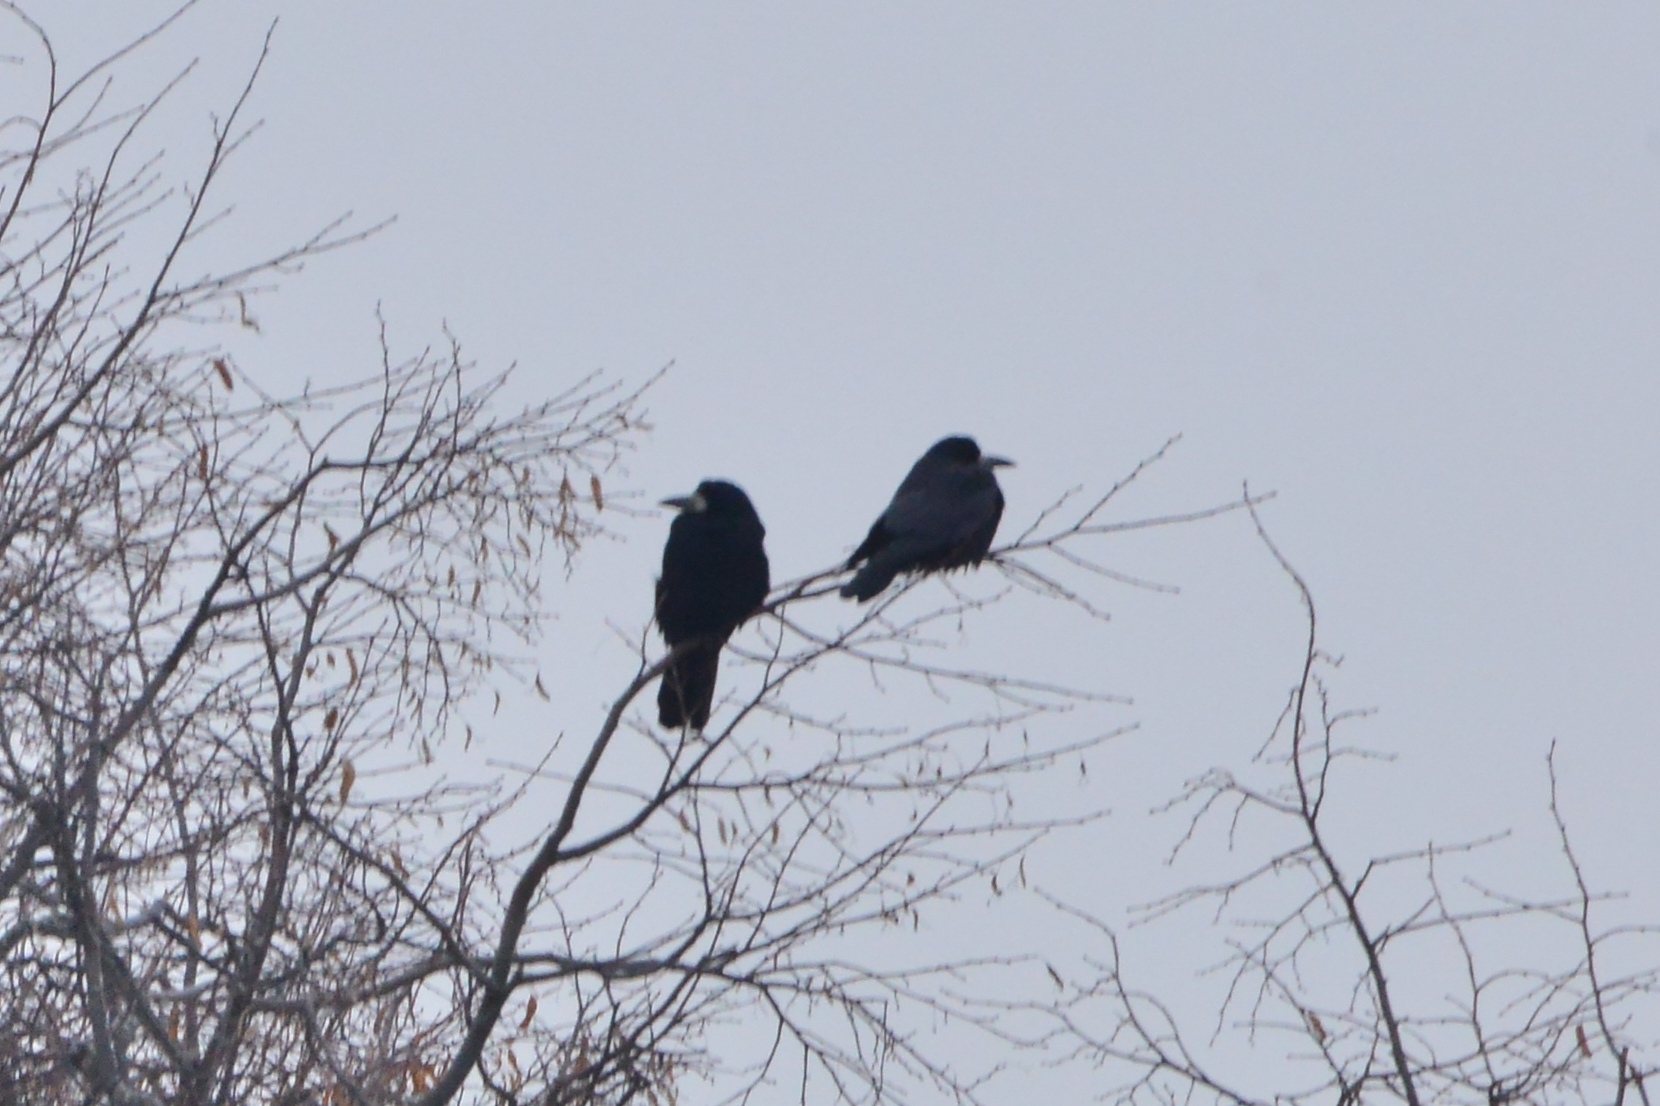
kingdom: Animalia
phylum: Chordata
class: Aves
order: Passeriformes
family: Corvidae
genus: Corvus
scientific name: Corvus frugilegus
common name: Rook
